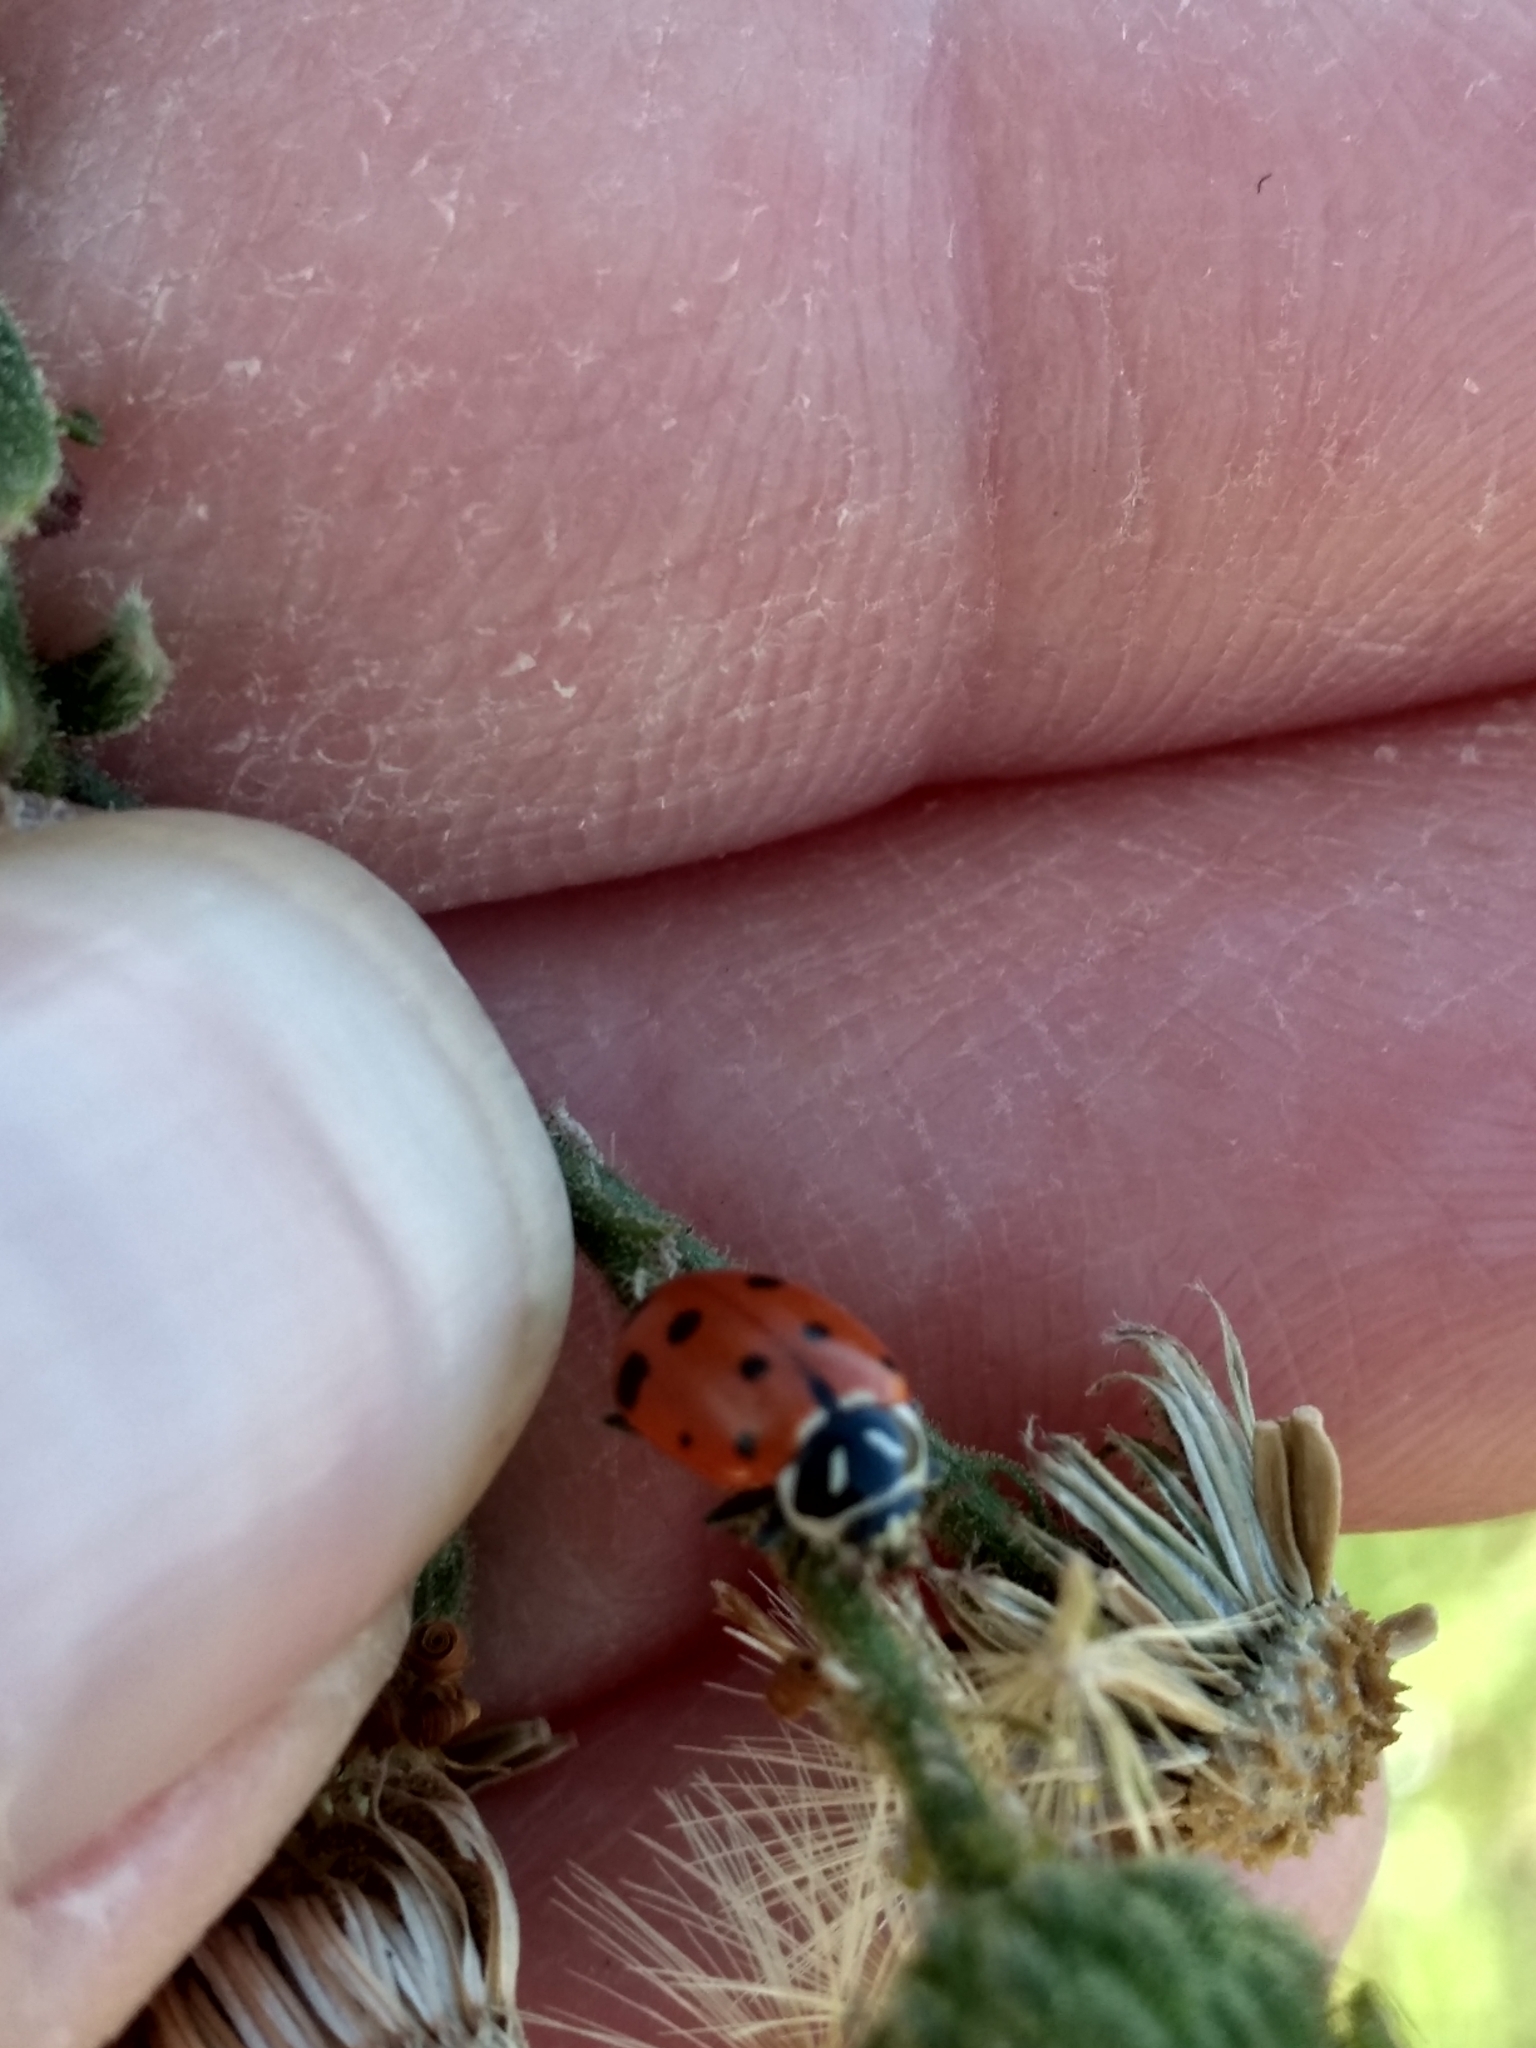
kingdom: Animalia
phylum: Arthropoda
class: Insecta
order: Coleoptera
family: Coccinellidae
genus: Hippodamia
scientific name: Hippodamia convergens
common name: Convergent lady beetle
